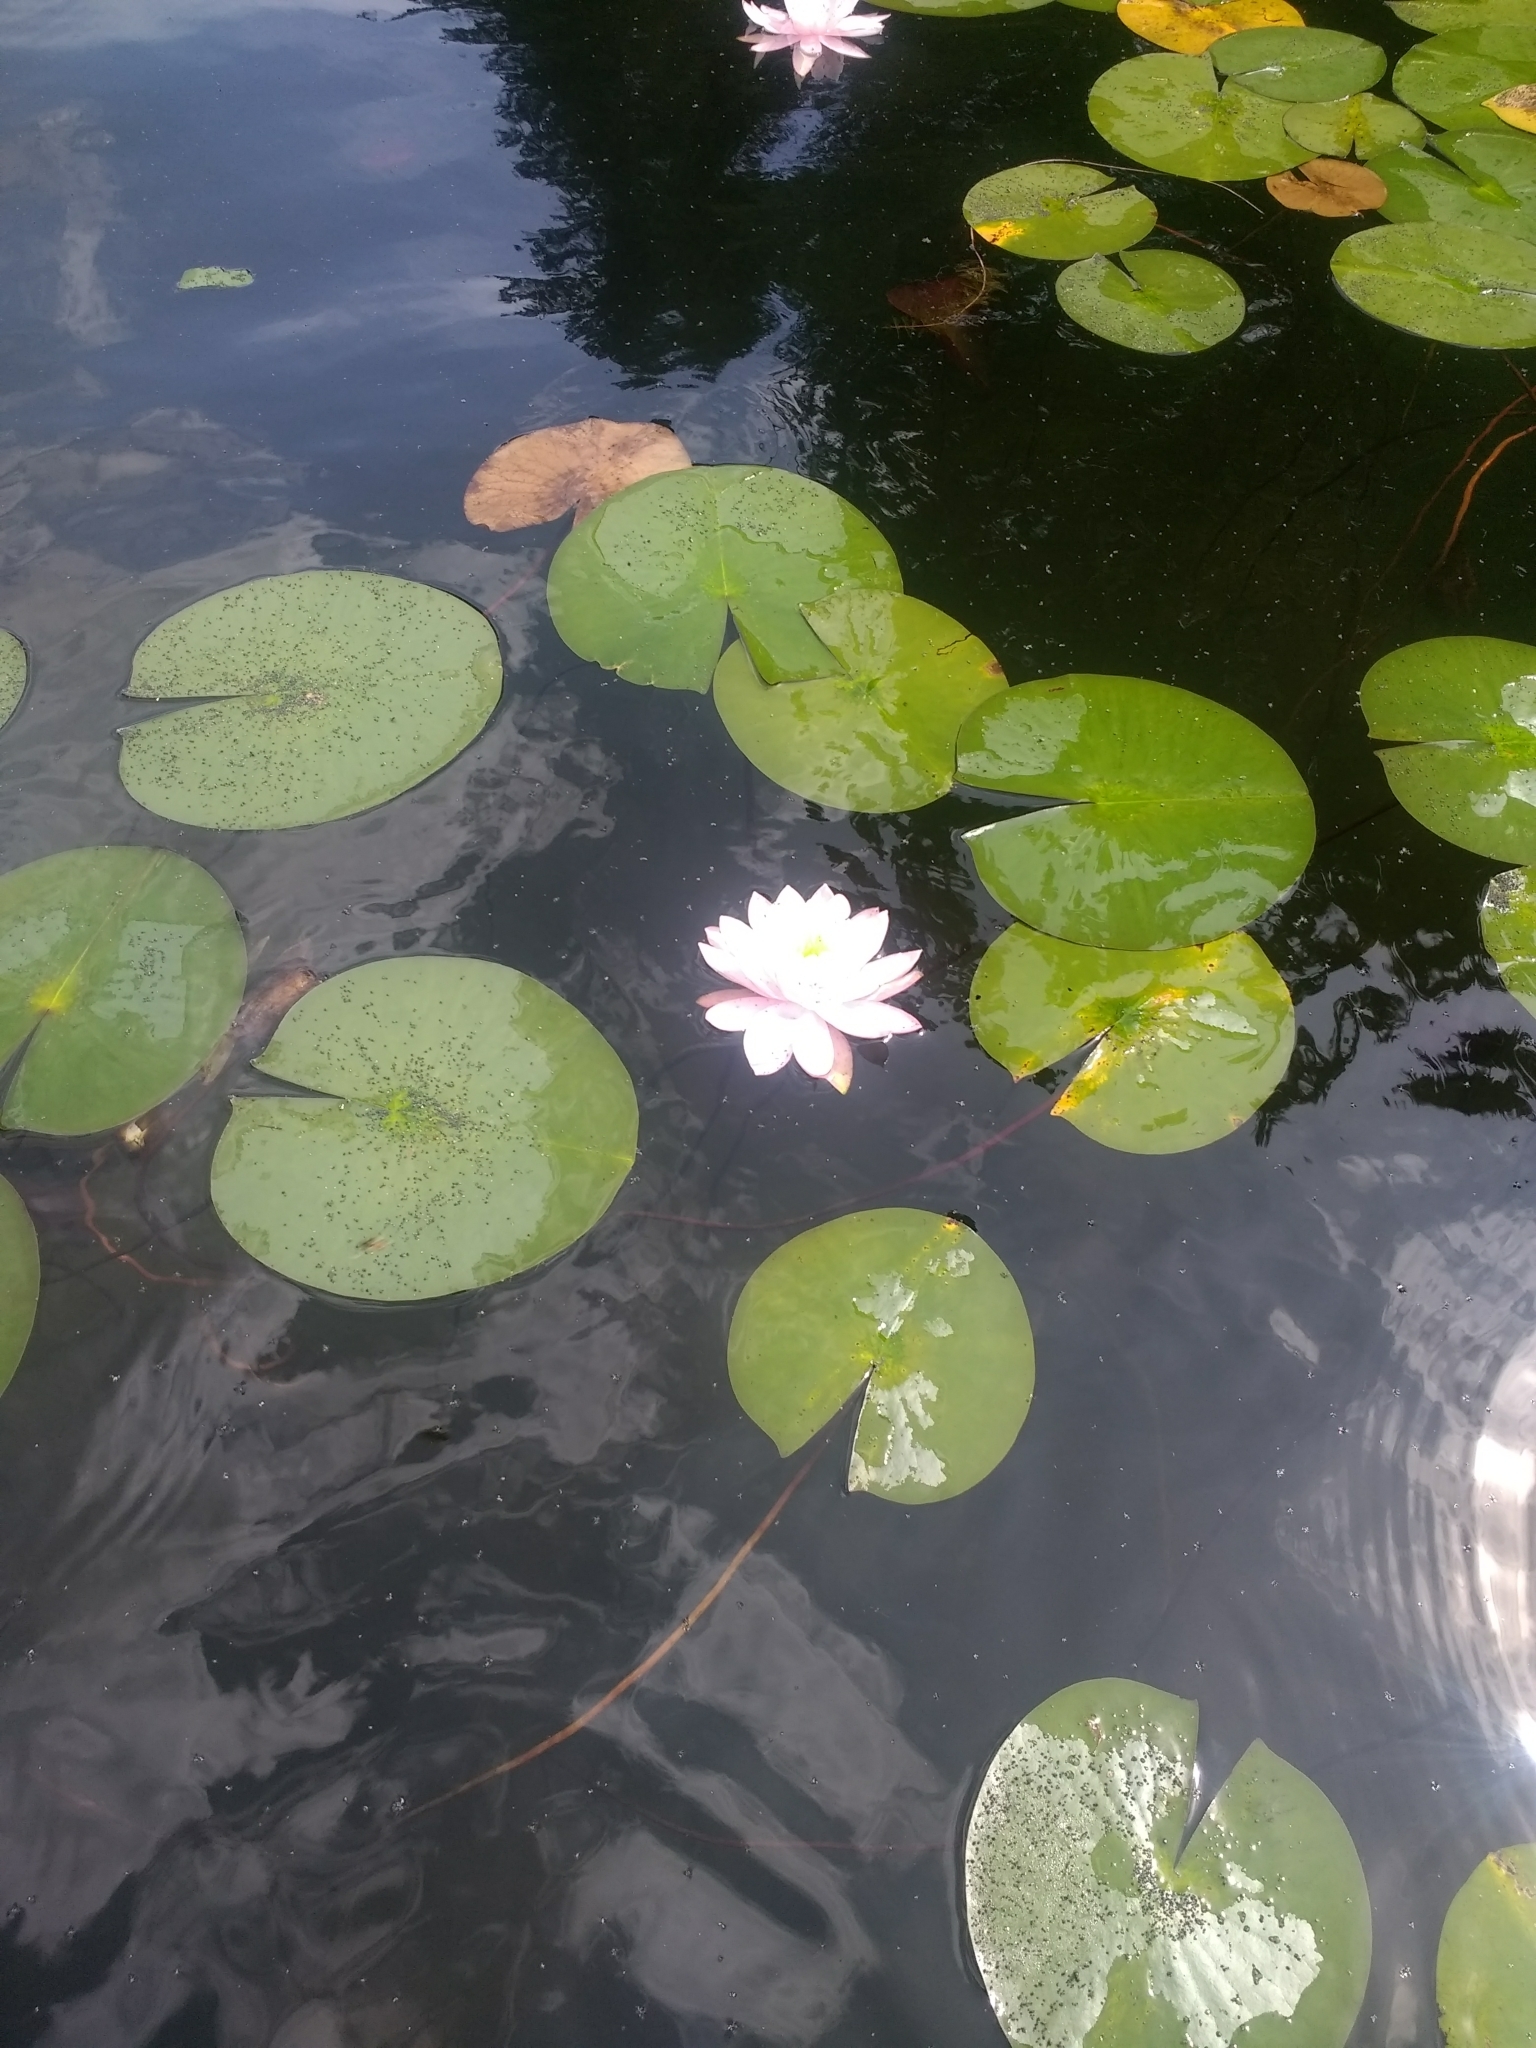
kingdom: Plantae
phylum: Tracheophyta
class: Magnoliopsida
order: Nymphaeales
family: Nymphaeaceae
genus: Nymphaea
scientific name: Nymphaea odorata
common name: Fragrant water-lily
